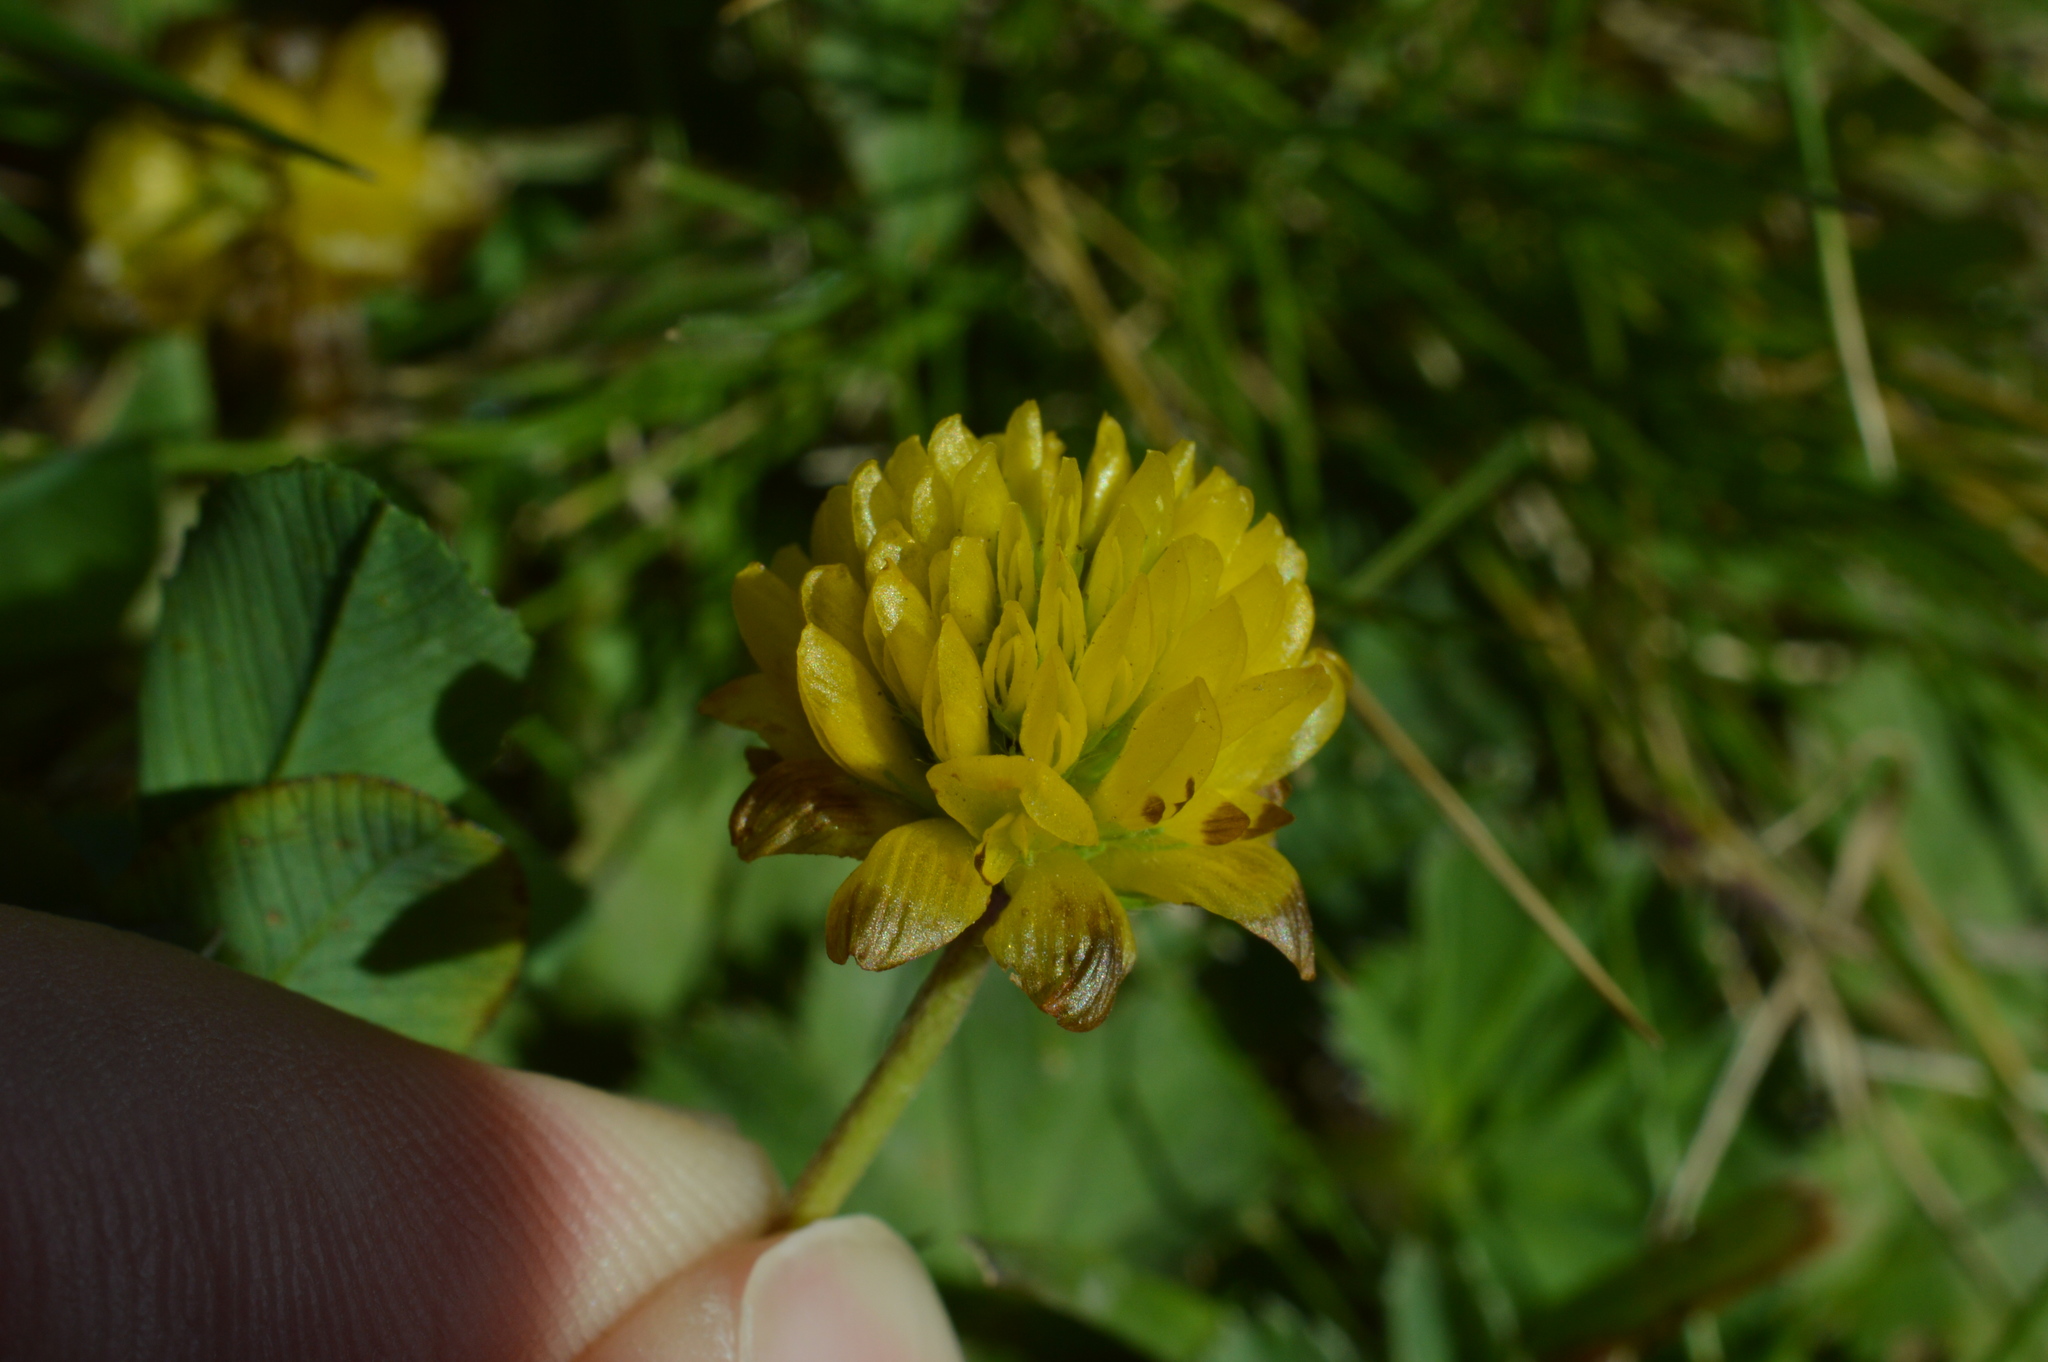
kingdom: Plantae
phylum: Tracheophyta
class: Magnoliopsida
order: Fabales
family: Fabaceae
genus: Trifolium
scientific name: Trifolium badium
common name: Brown clover
